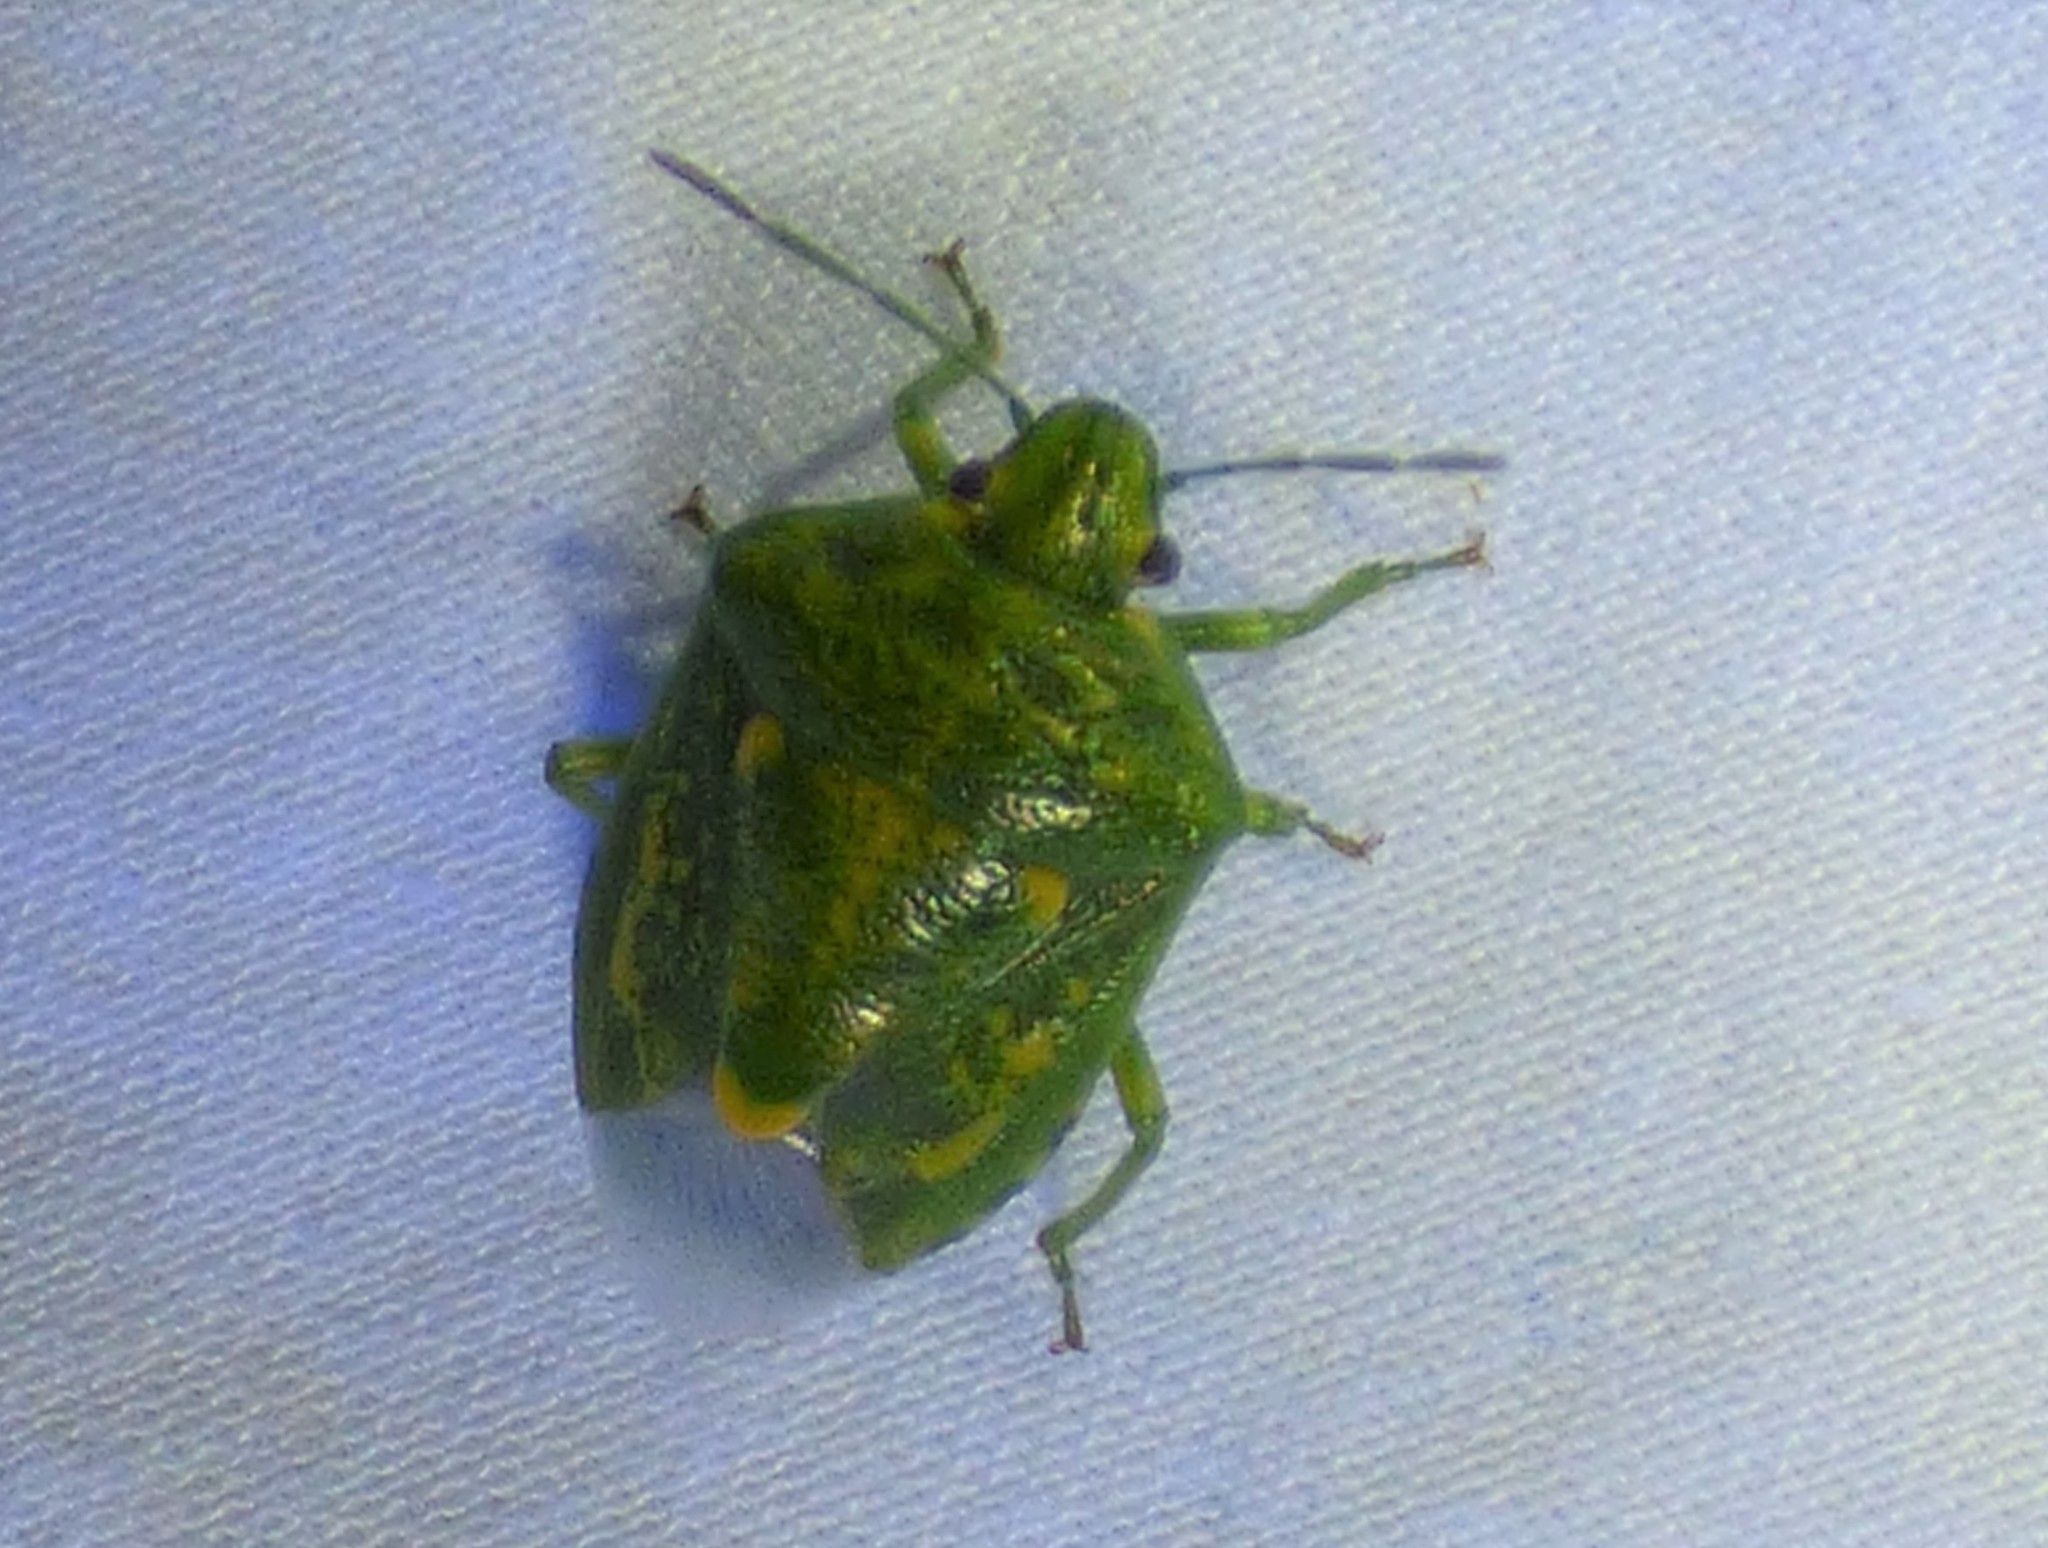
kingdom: Animalia
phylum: Arthropoda
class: Insecta
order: Hemiptera
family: Pentatomidae
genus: Banasa
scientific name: Banasa euchlora
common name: Cedar berry bug
